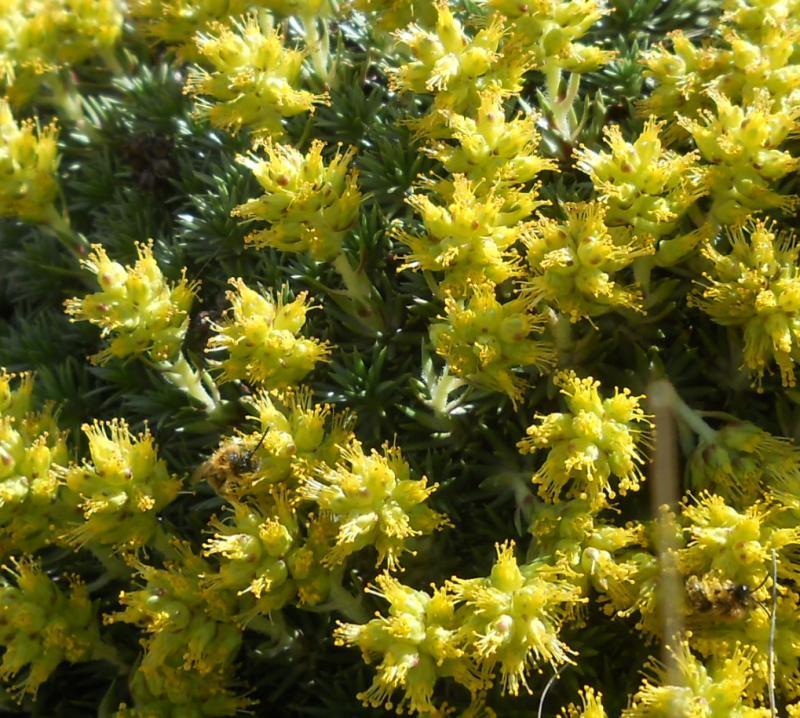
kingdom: Plantae
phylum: Tracheophyta
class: Magnoliopsida
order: Saxifragales
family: Saxifragaceae
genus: Saxifraga
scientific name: Saxifraga juniperifolia
